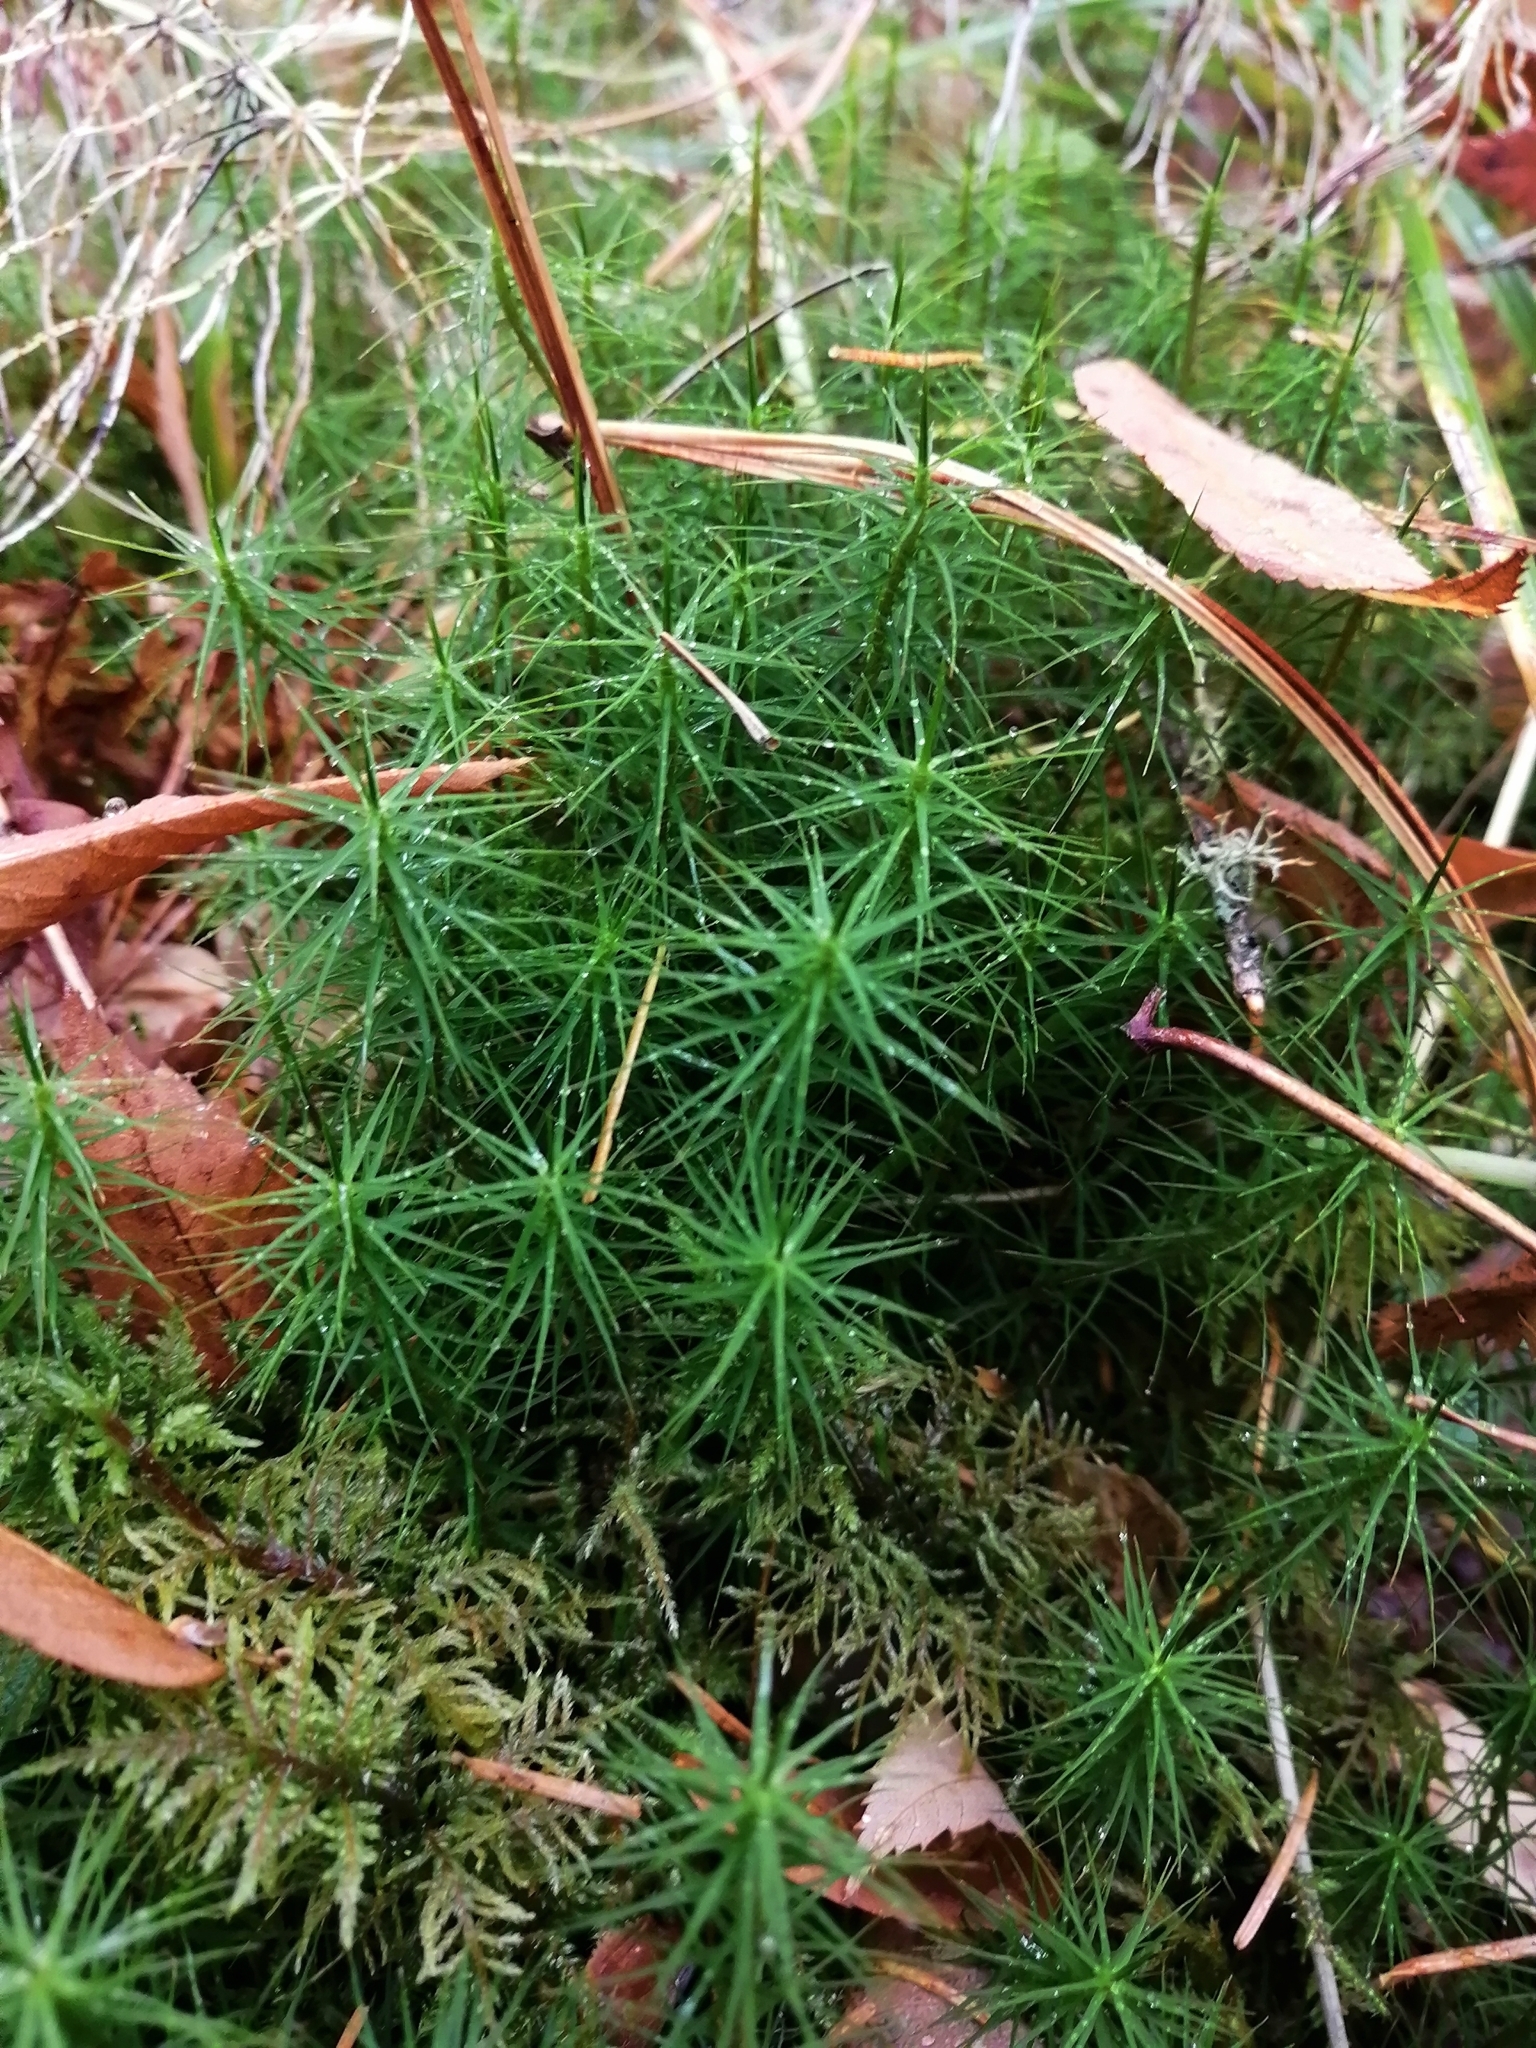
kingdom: Plantae
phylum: Bryophyta
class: Polytrichopsida
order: Polytrichales
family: Polytrichaceae
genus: Polytrichum
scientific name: Polytrichum commune
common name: Common haircap
